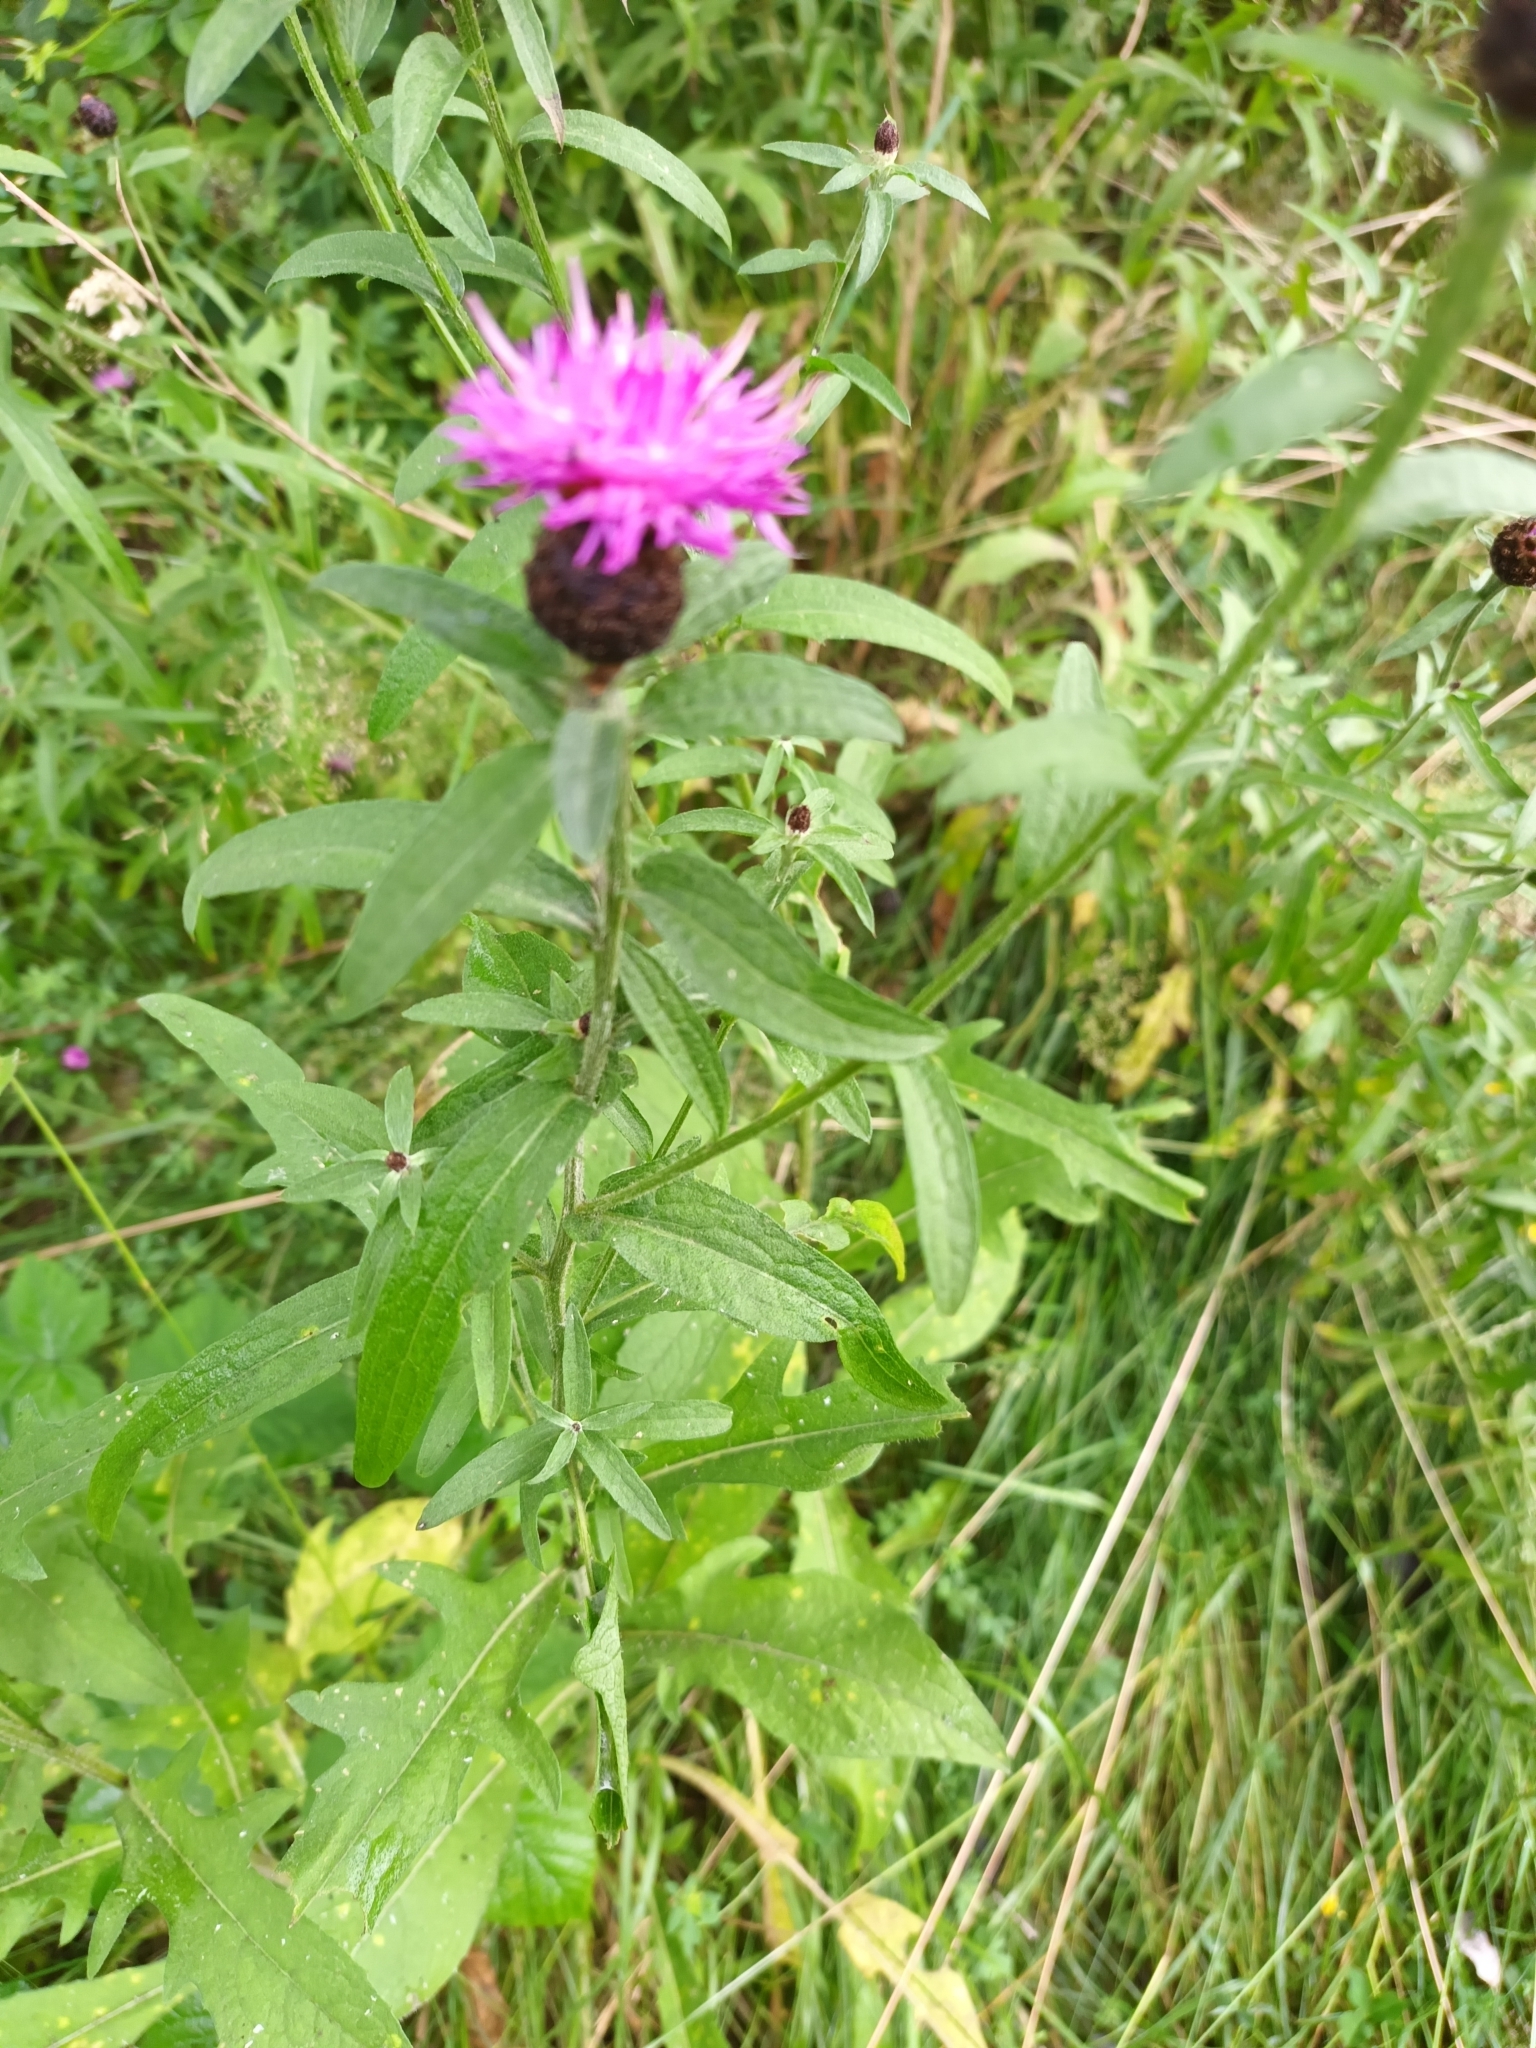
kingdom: Plantae
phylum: Tracheophyta
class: Magnoliopsida
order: Asterales
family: Asteraceae
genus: Centaurea
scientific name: Centaurea nigra
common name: Lesser knapweed
